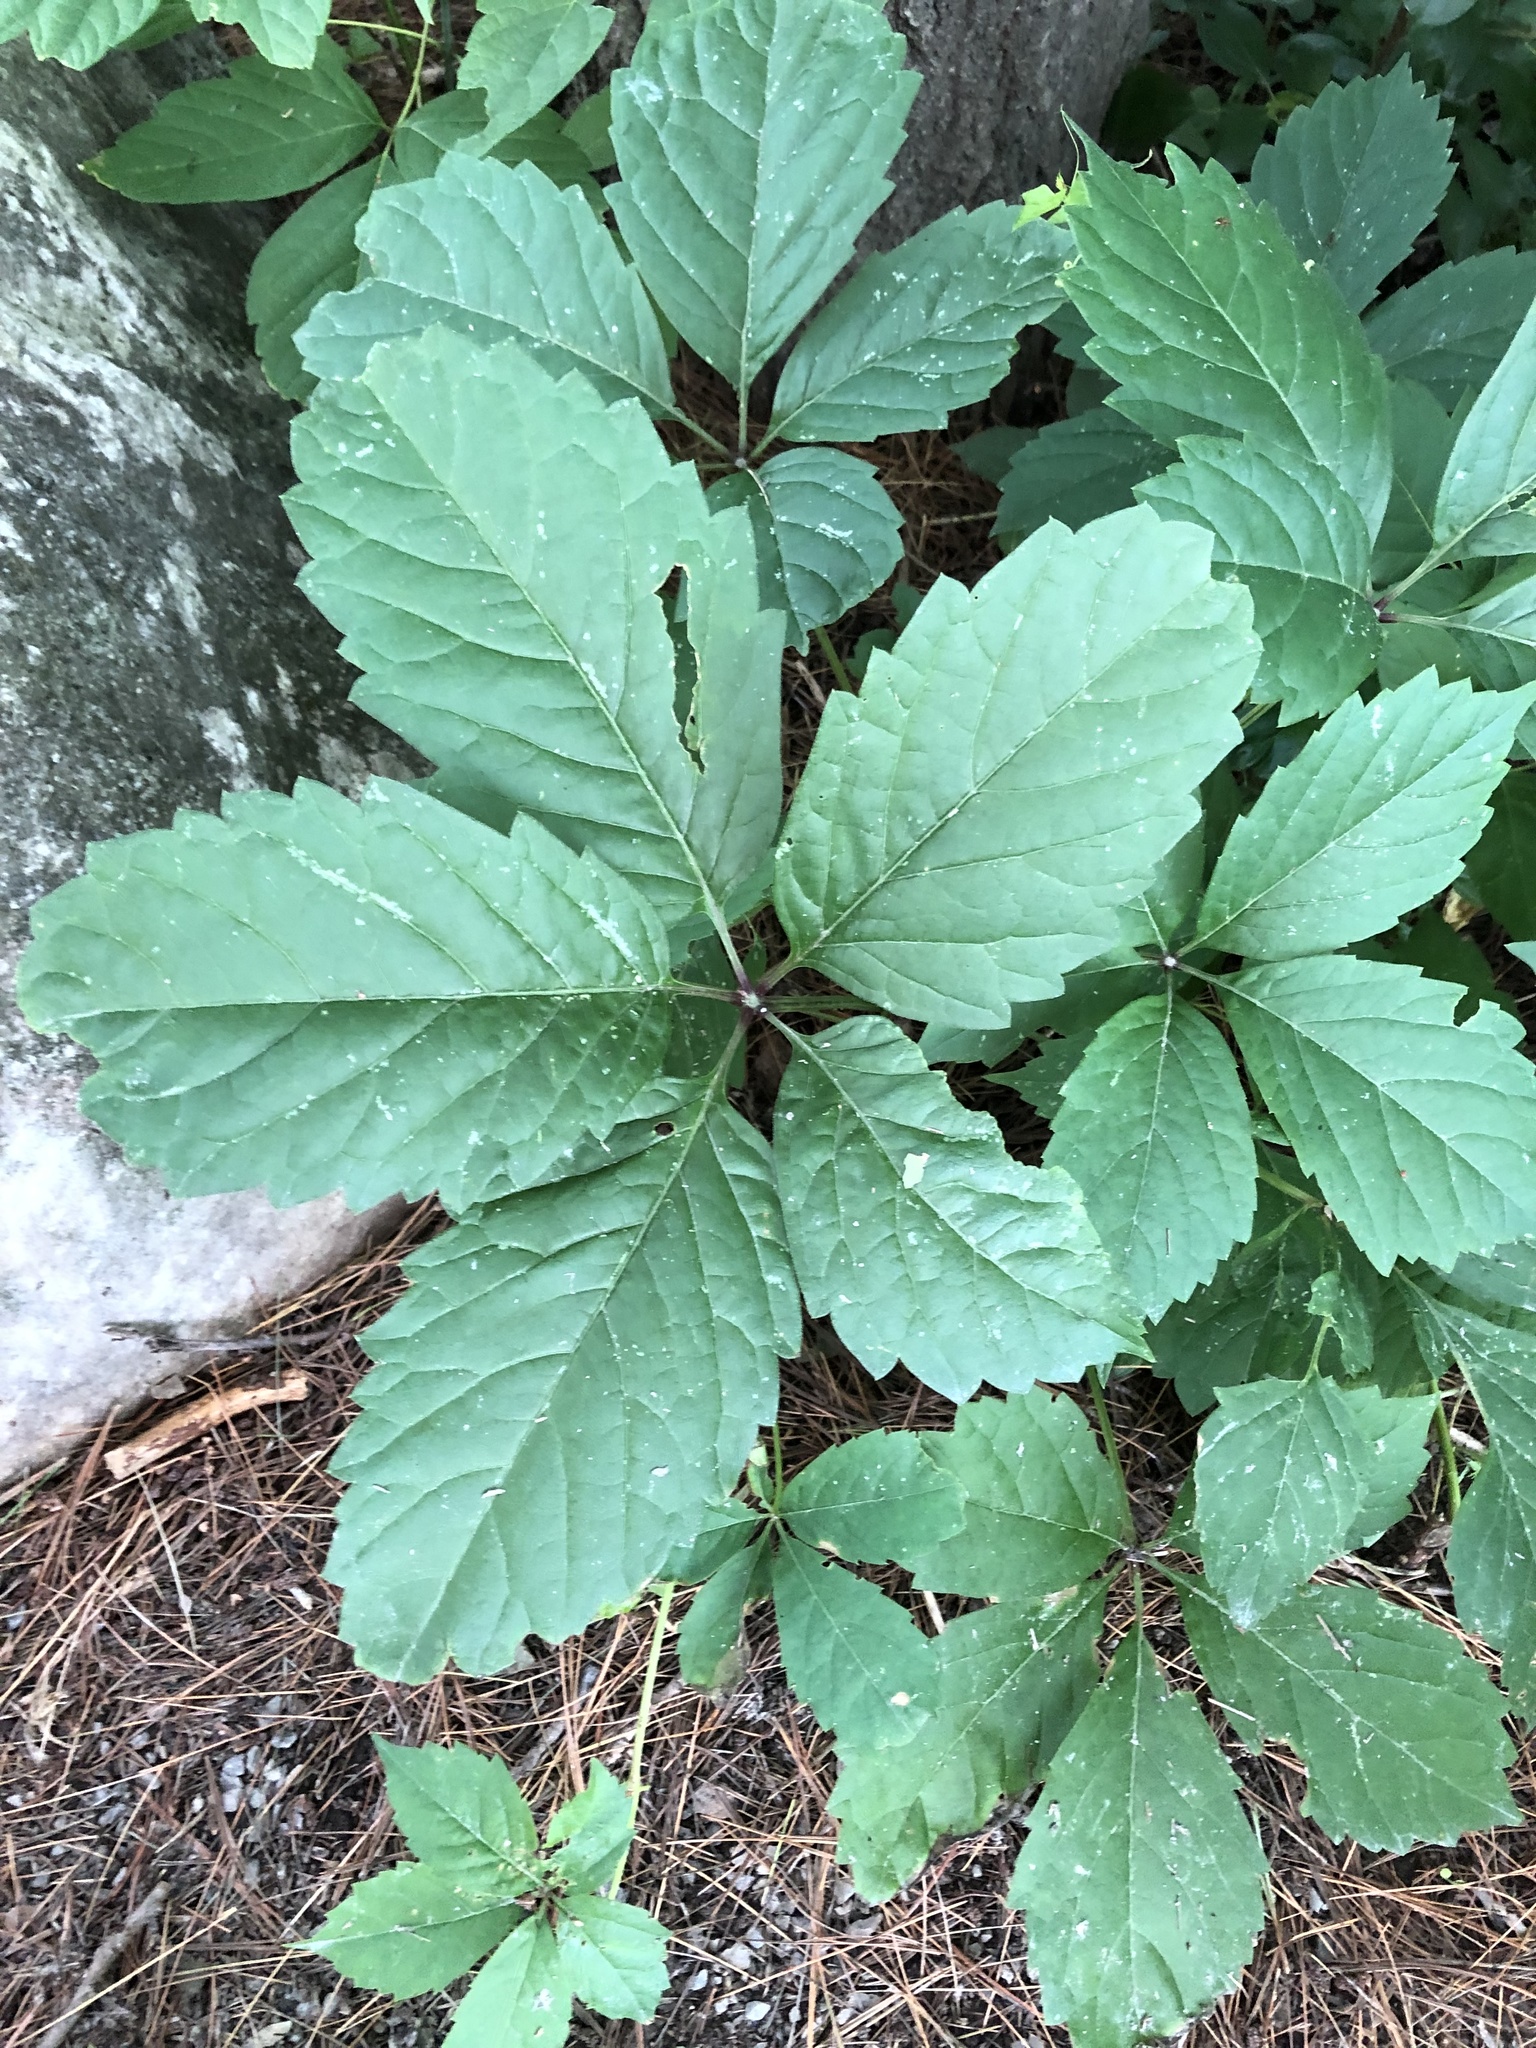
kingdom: Plantae
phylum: Tracheophyta
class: Magnoliopsida
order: Vitales
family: Vitaceae
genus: Parthenocissus
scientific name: Parthenocissus inserta
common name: False virginia-creeper
